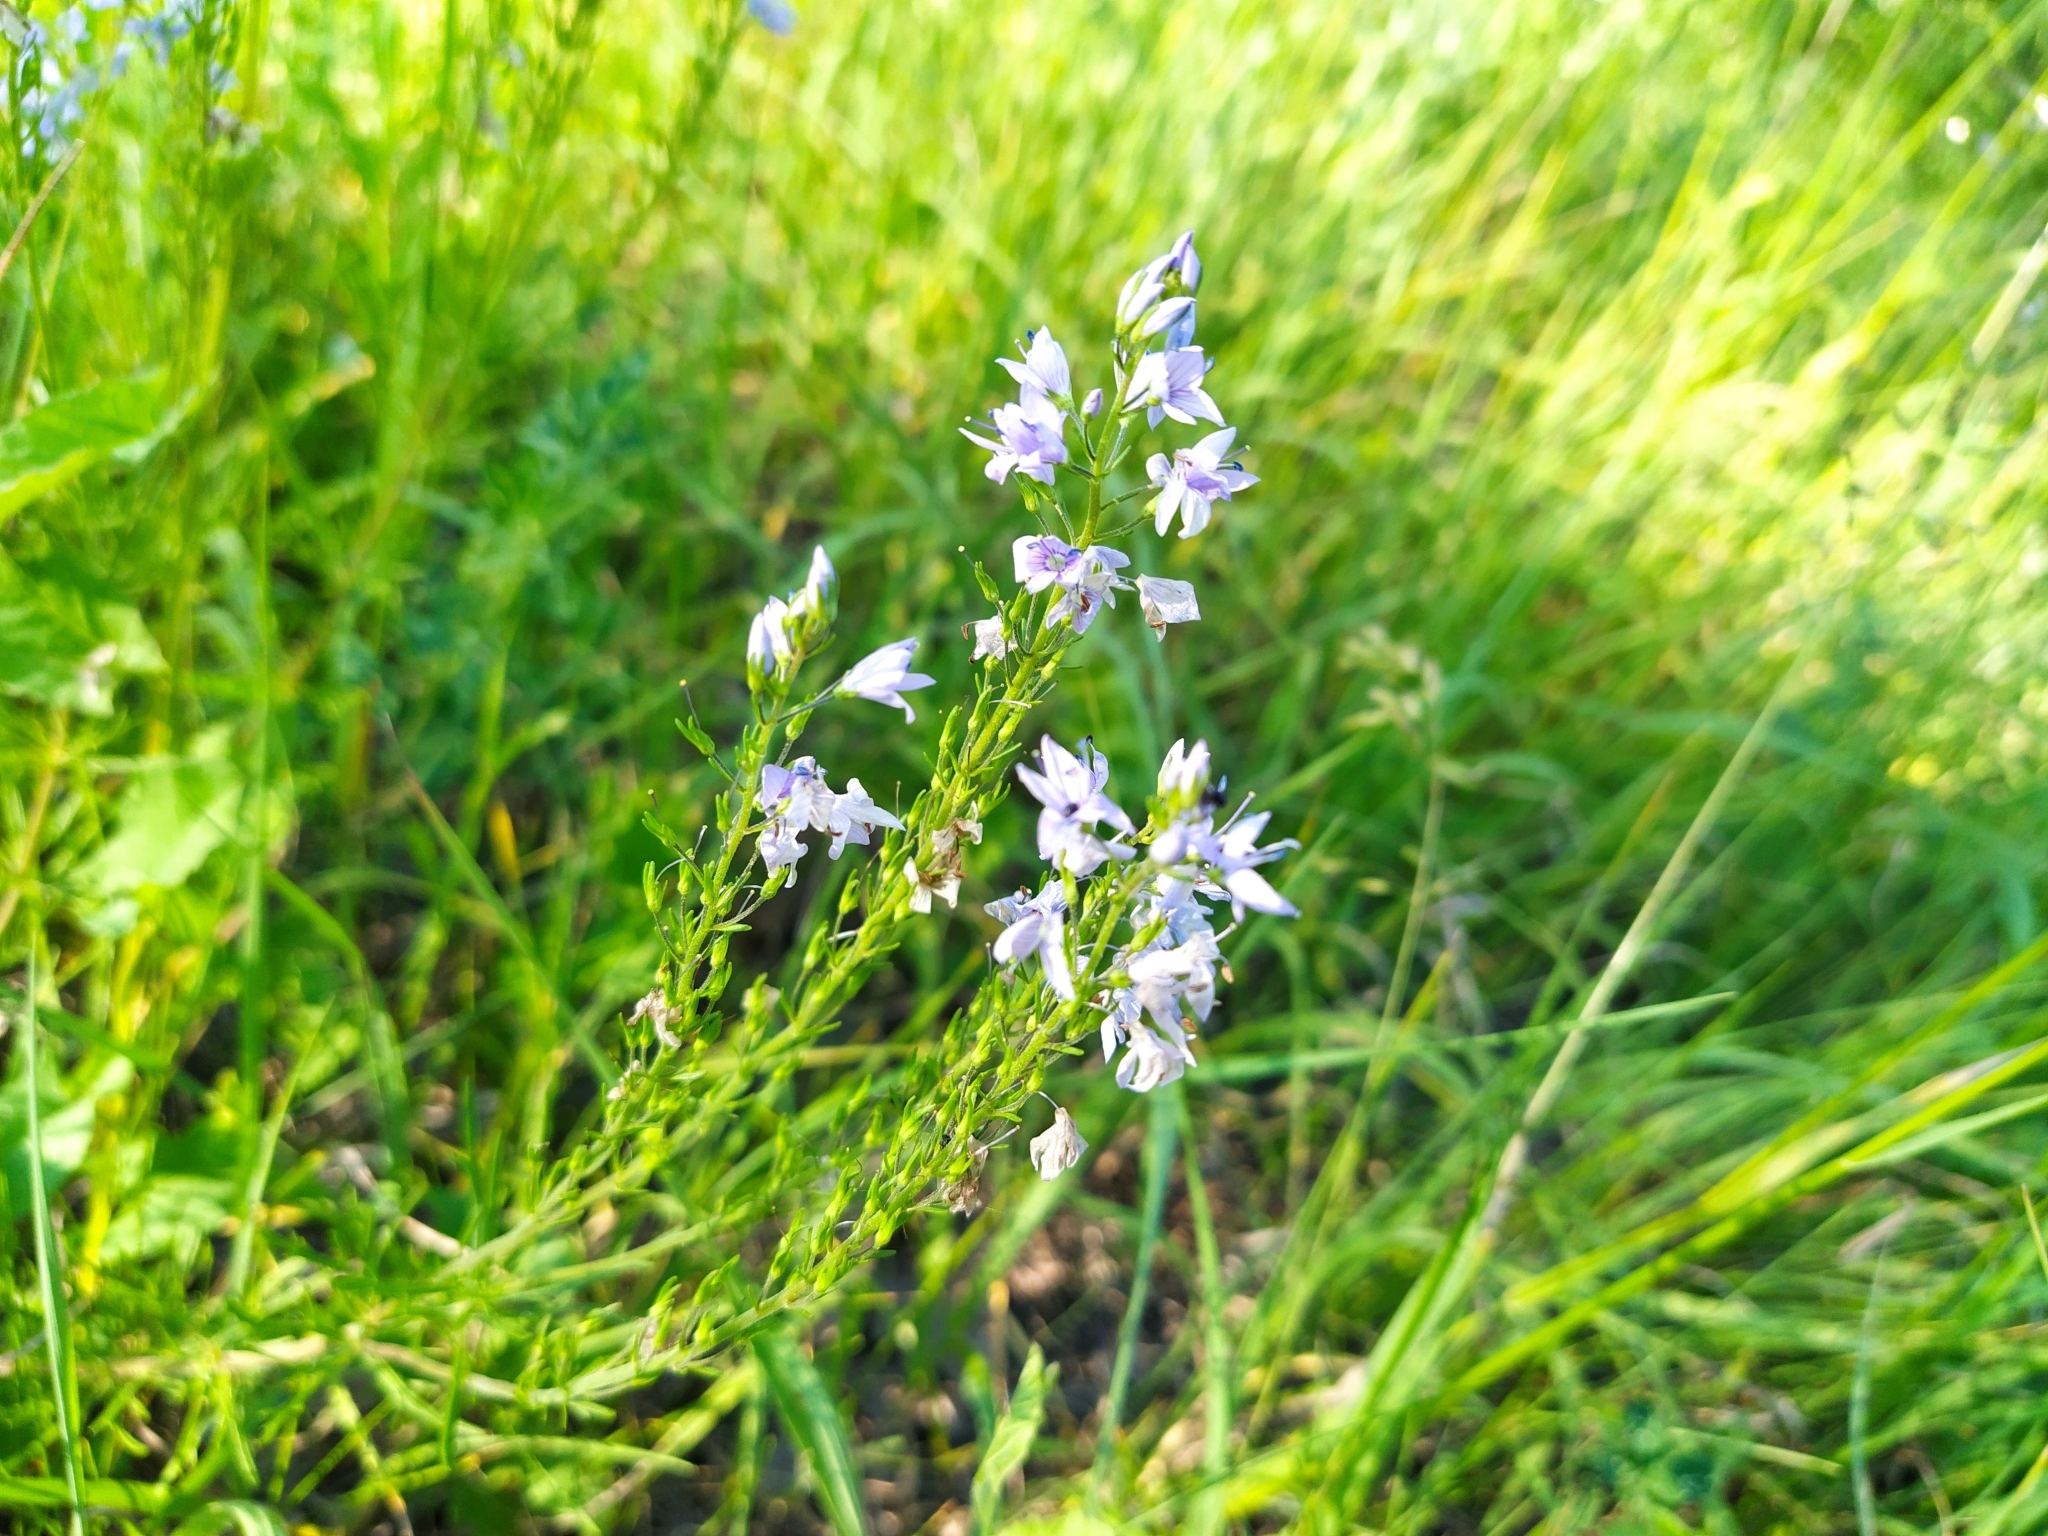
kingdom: Plantae
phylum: Tracheophyta
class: Magnoliopsida
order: Lamiales
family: Plantaginaceae
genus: Veronica
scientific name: Veronica austriaca
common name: Large speedwell
